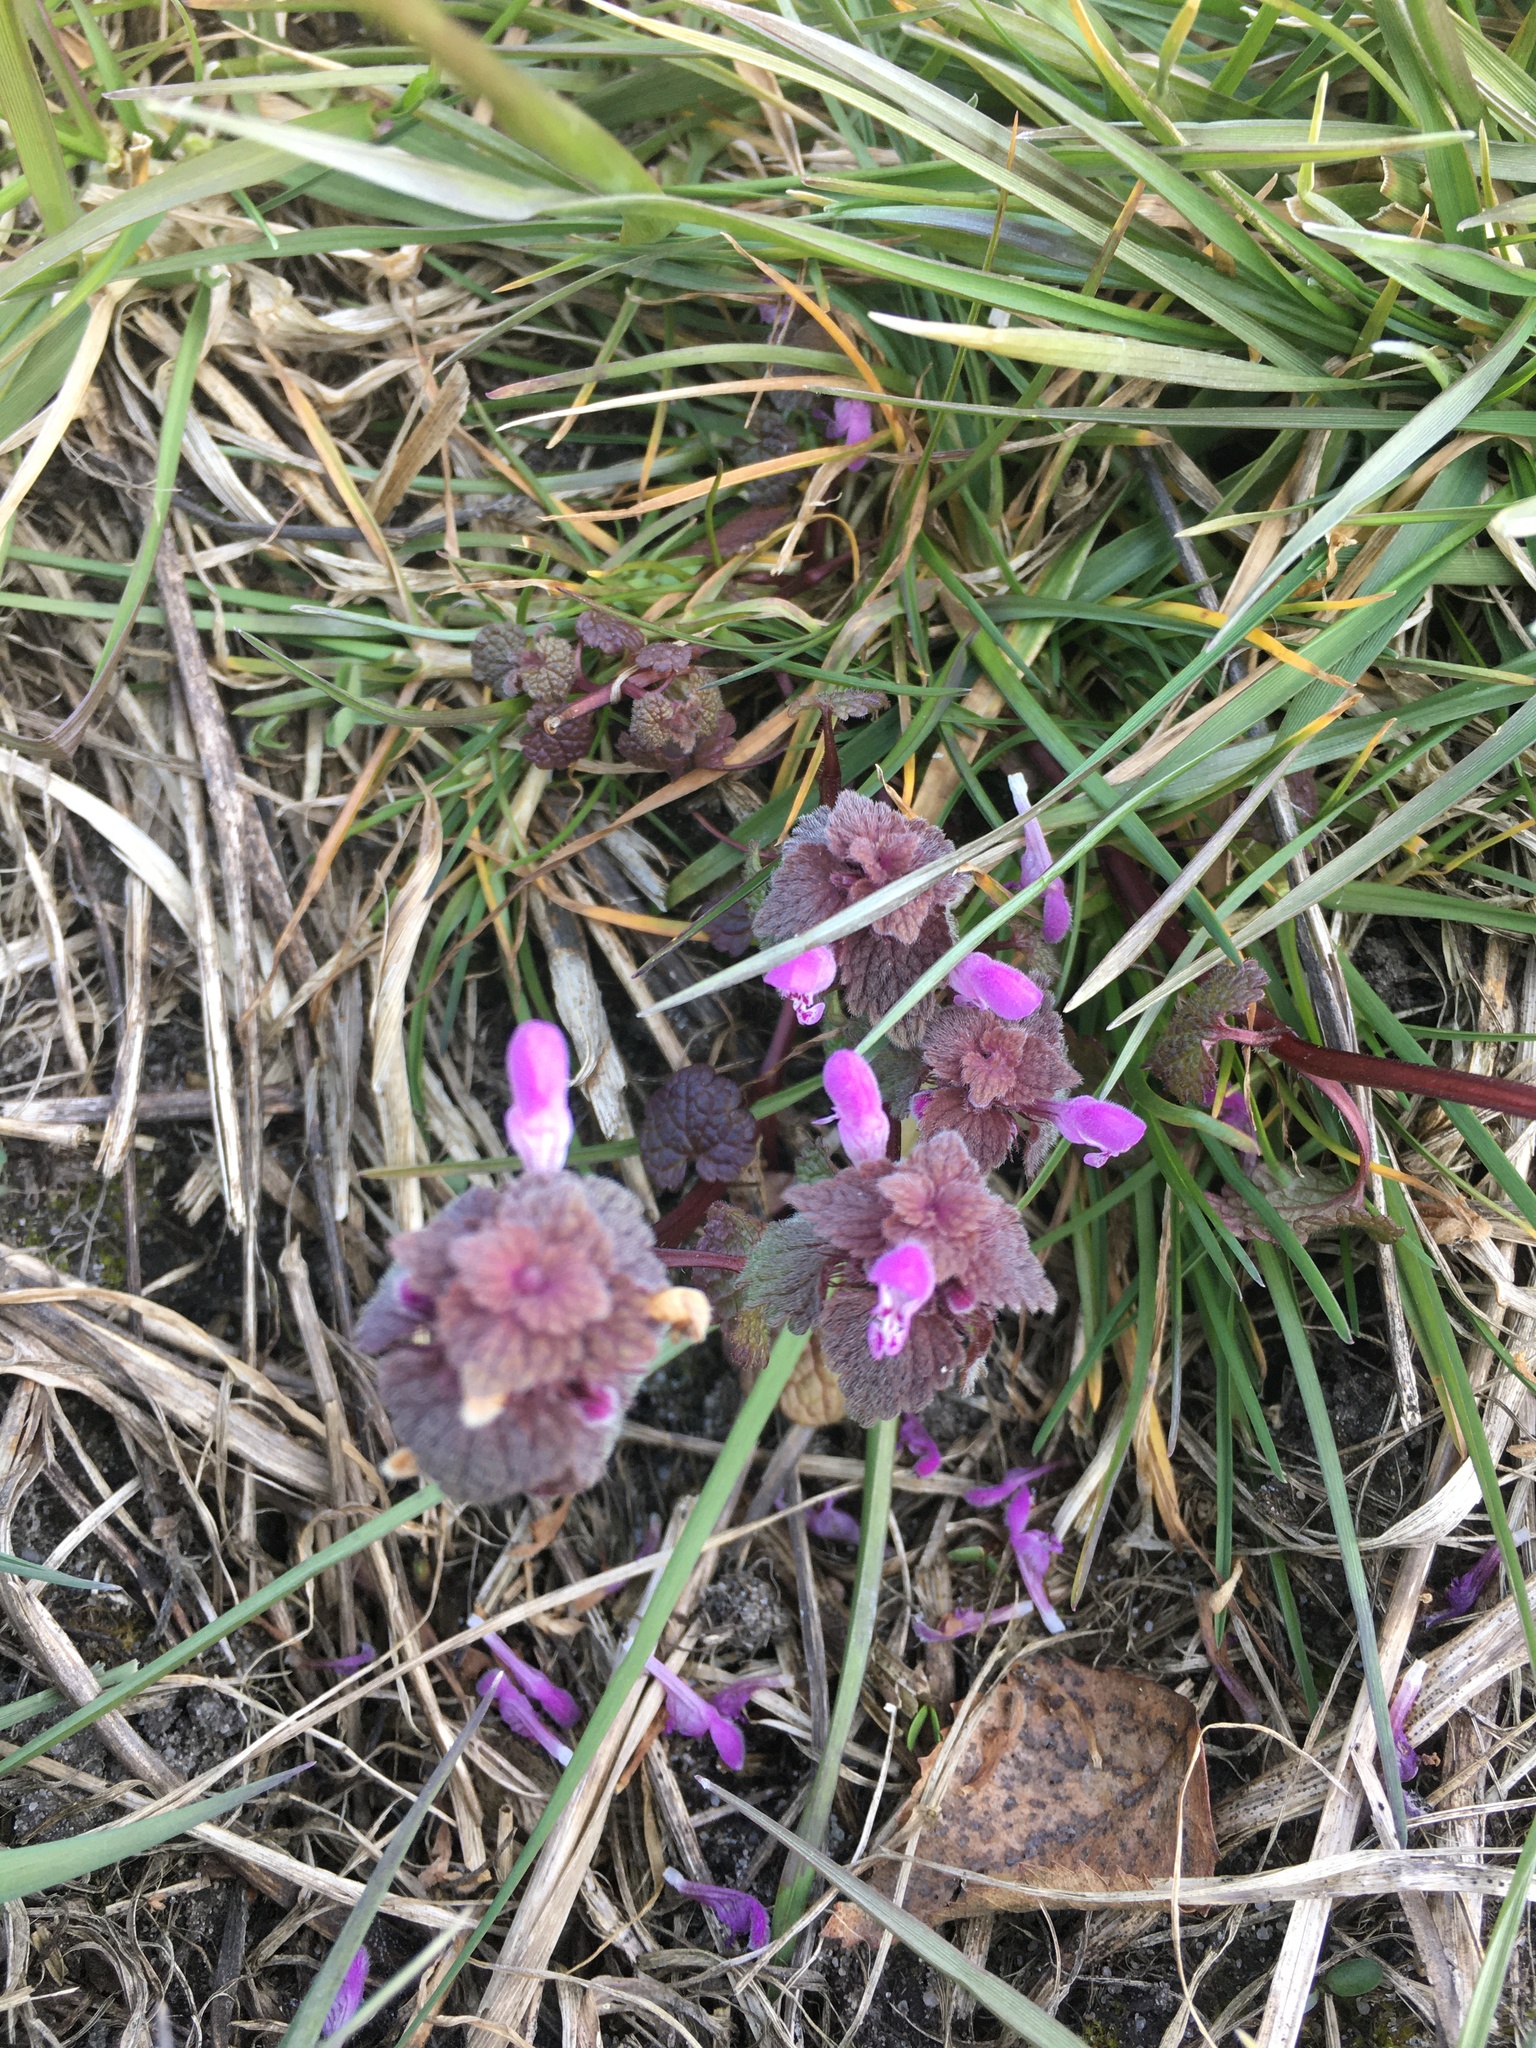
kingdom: Plantae
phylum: Tracheophyta
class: Magnoliopsida
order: Lamiales
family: Lamiaceae
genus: Lamium
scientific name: Lamium purpureum
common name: Red dead-nettle
